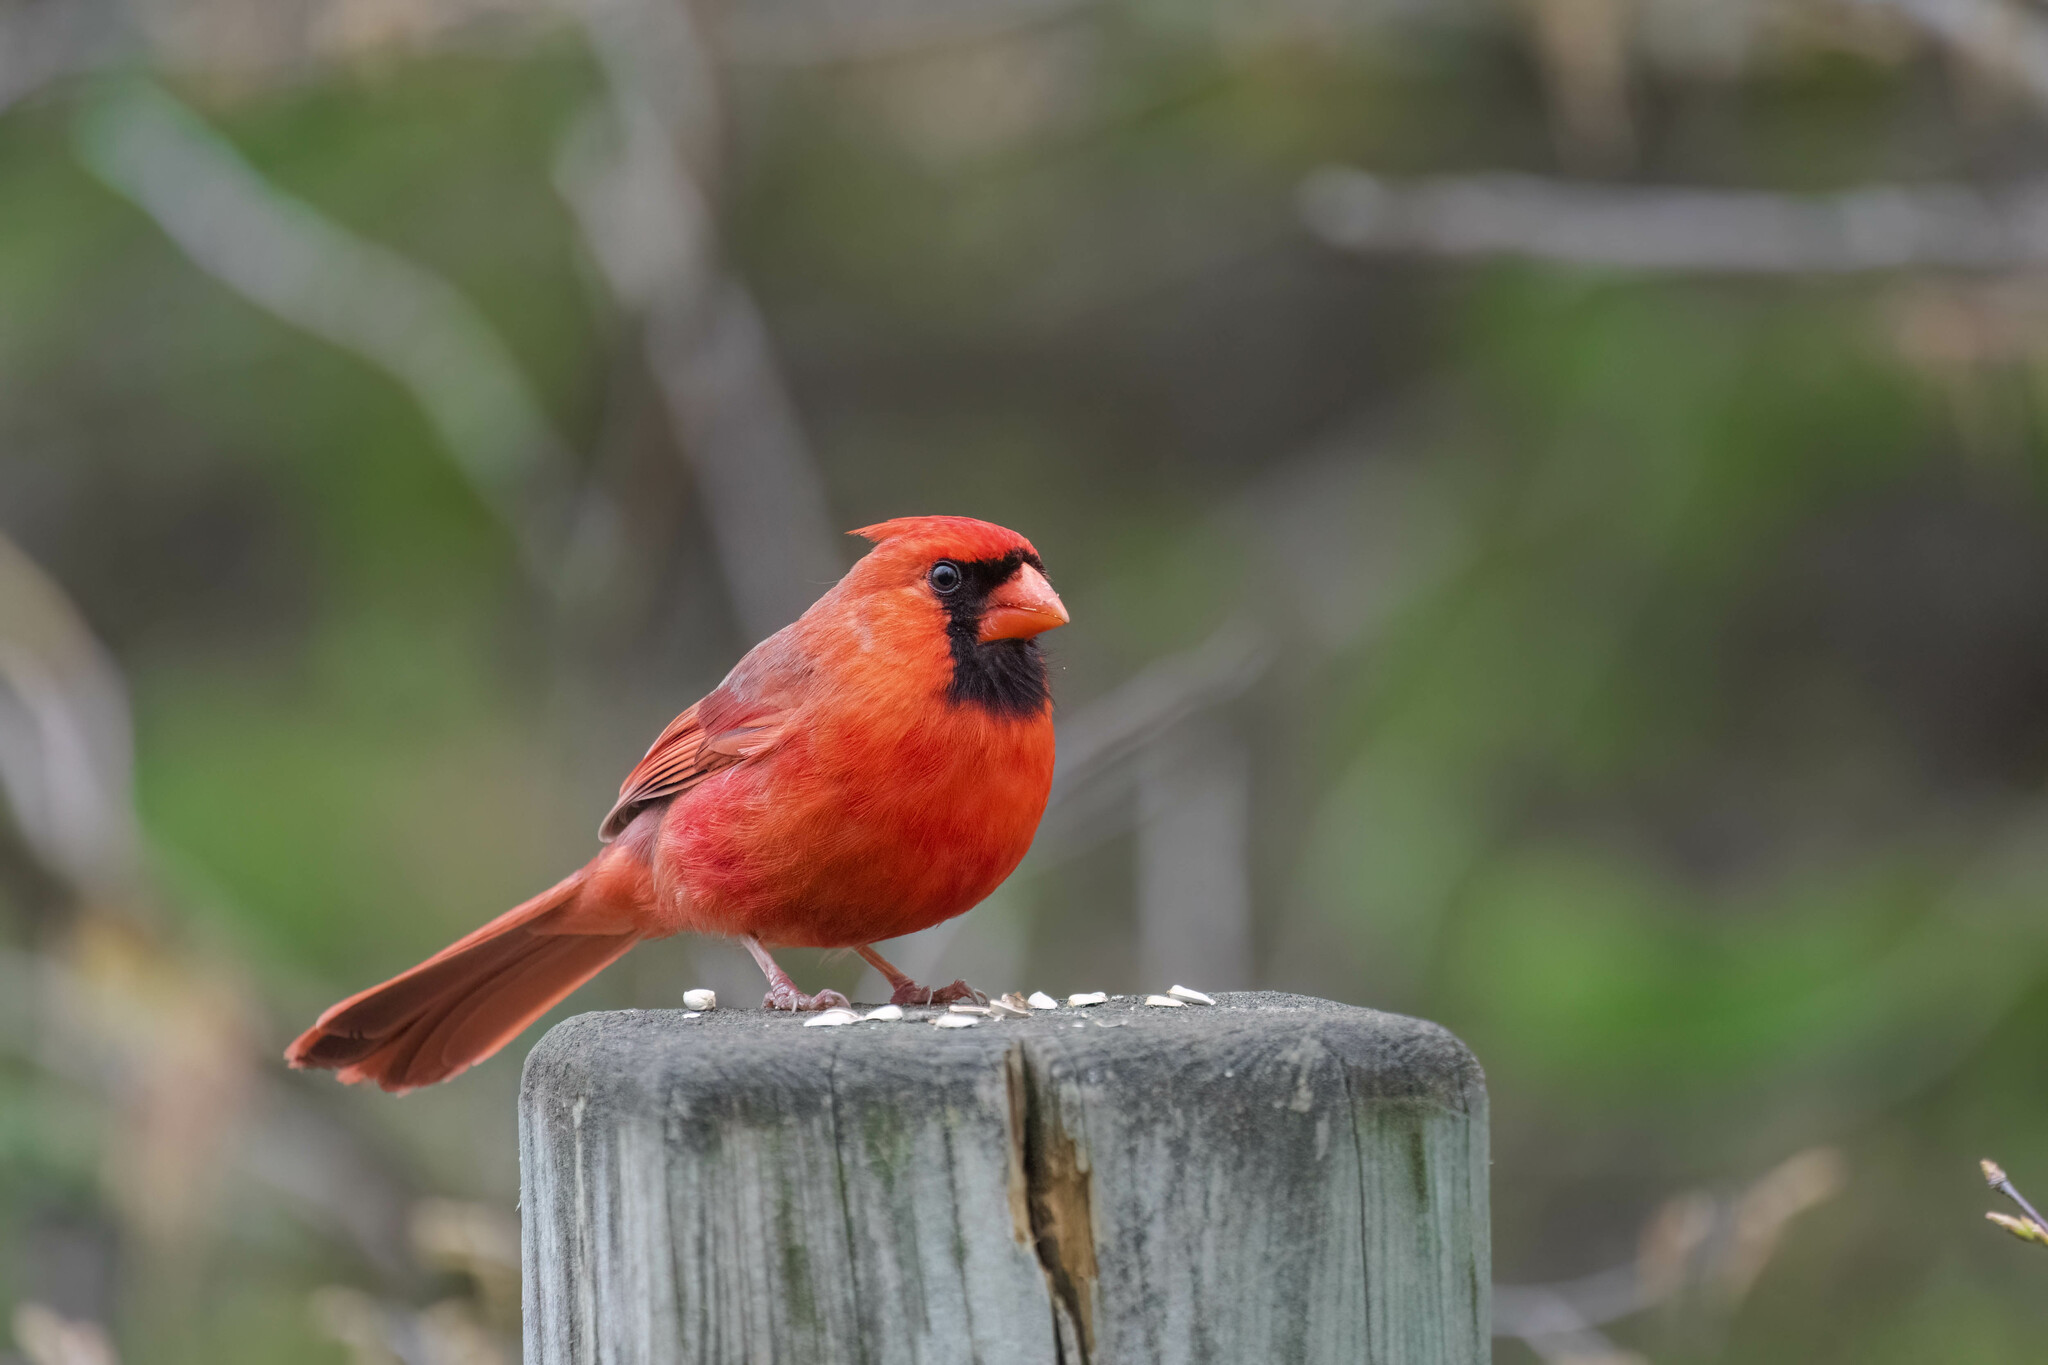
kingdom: Animalia
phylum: Chordata
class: Aves
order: Passeriformes
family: Cardinalidae
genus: Cardinalis
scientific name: Cardinalis cardinalis
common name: Northern cardinal
